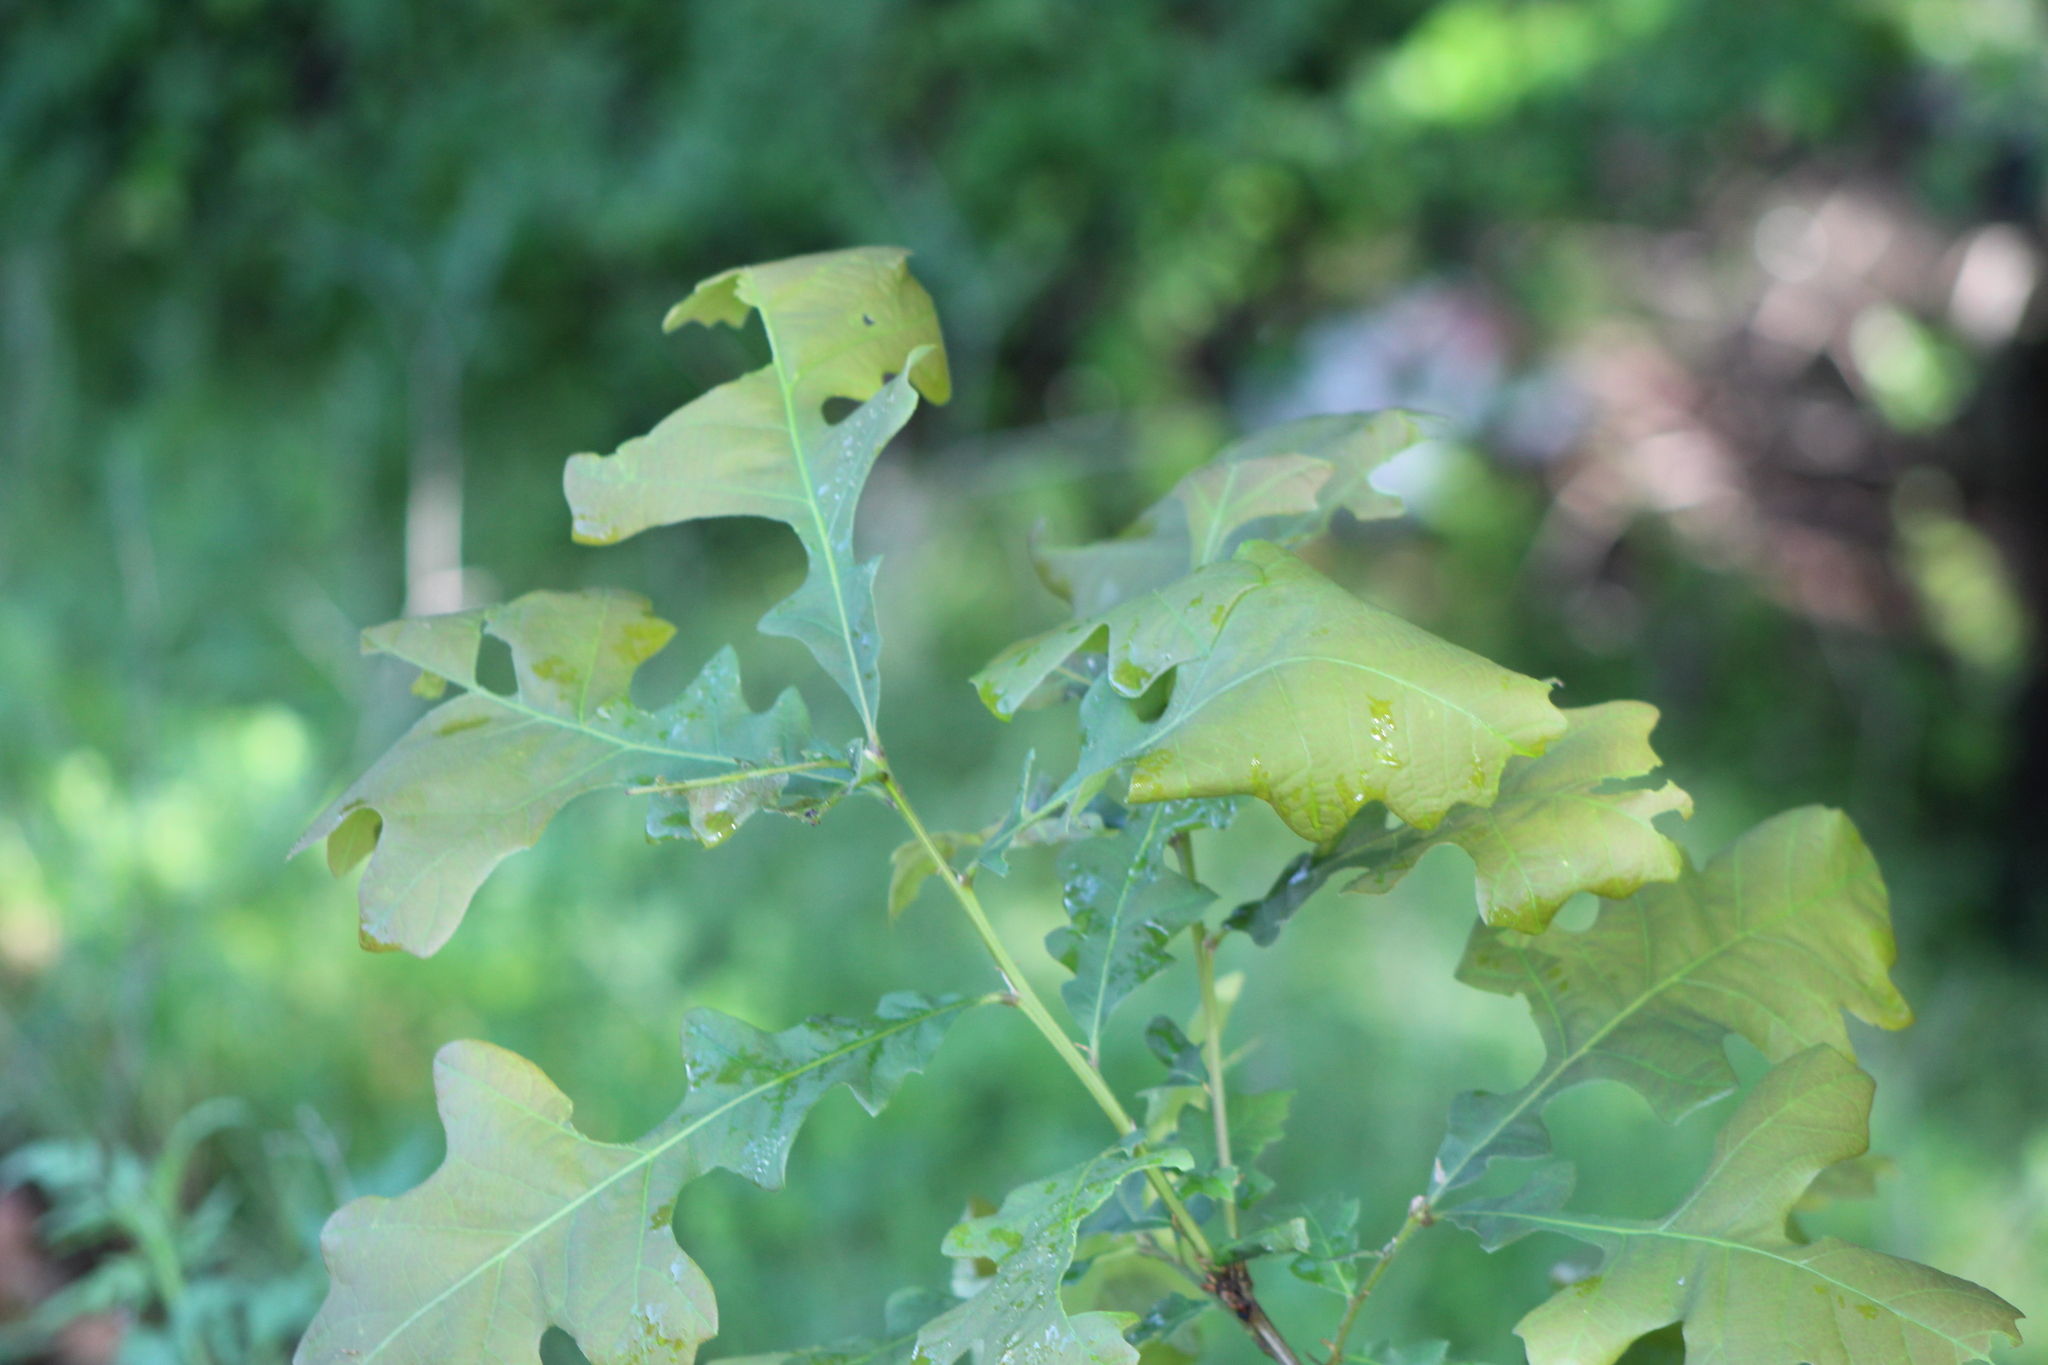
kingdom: Plantae
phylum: Tracheophyta
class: Magnoliopsida
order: Fagales
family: Fagaceae
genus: Quercus
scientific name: Quercus stellata
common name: Post oak
